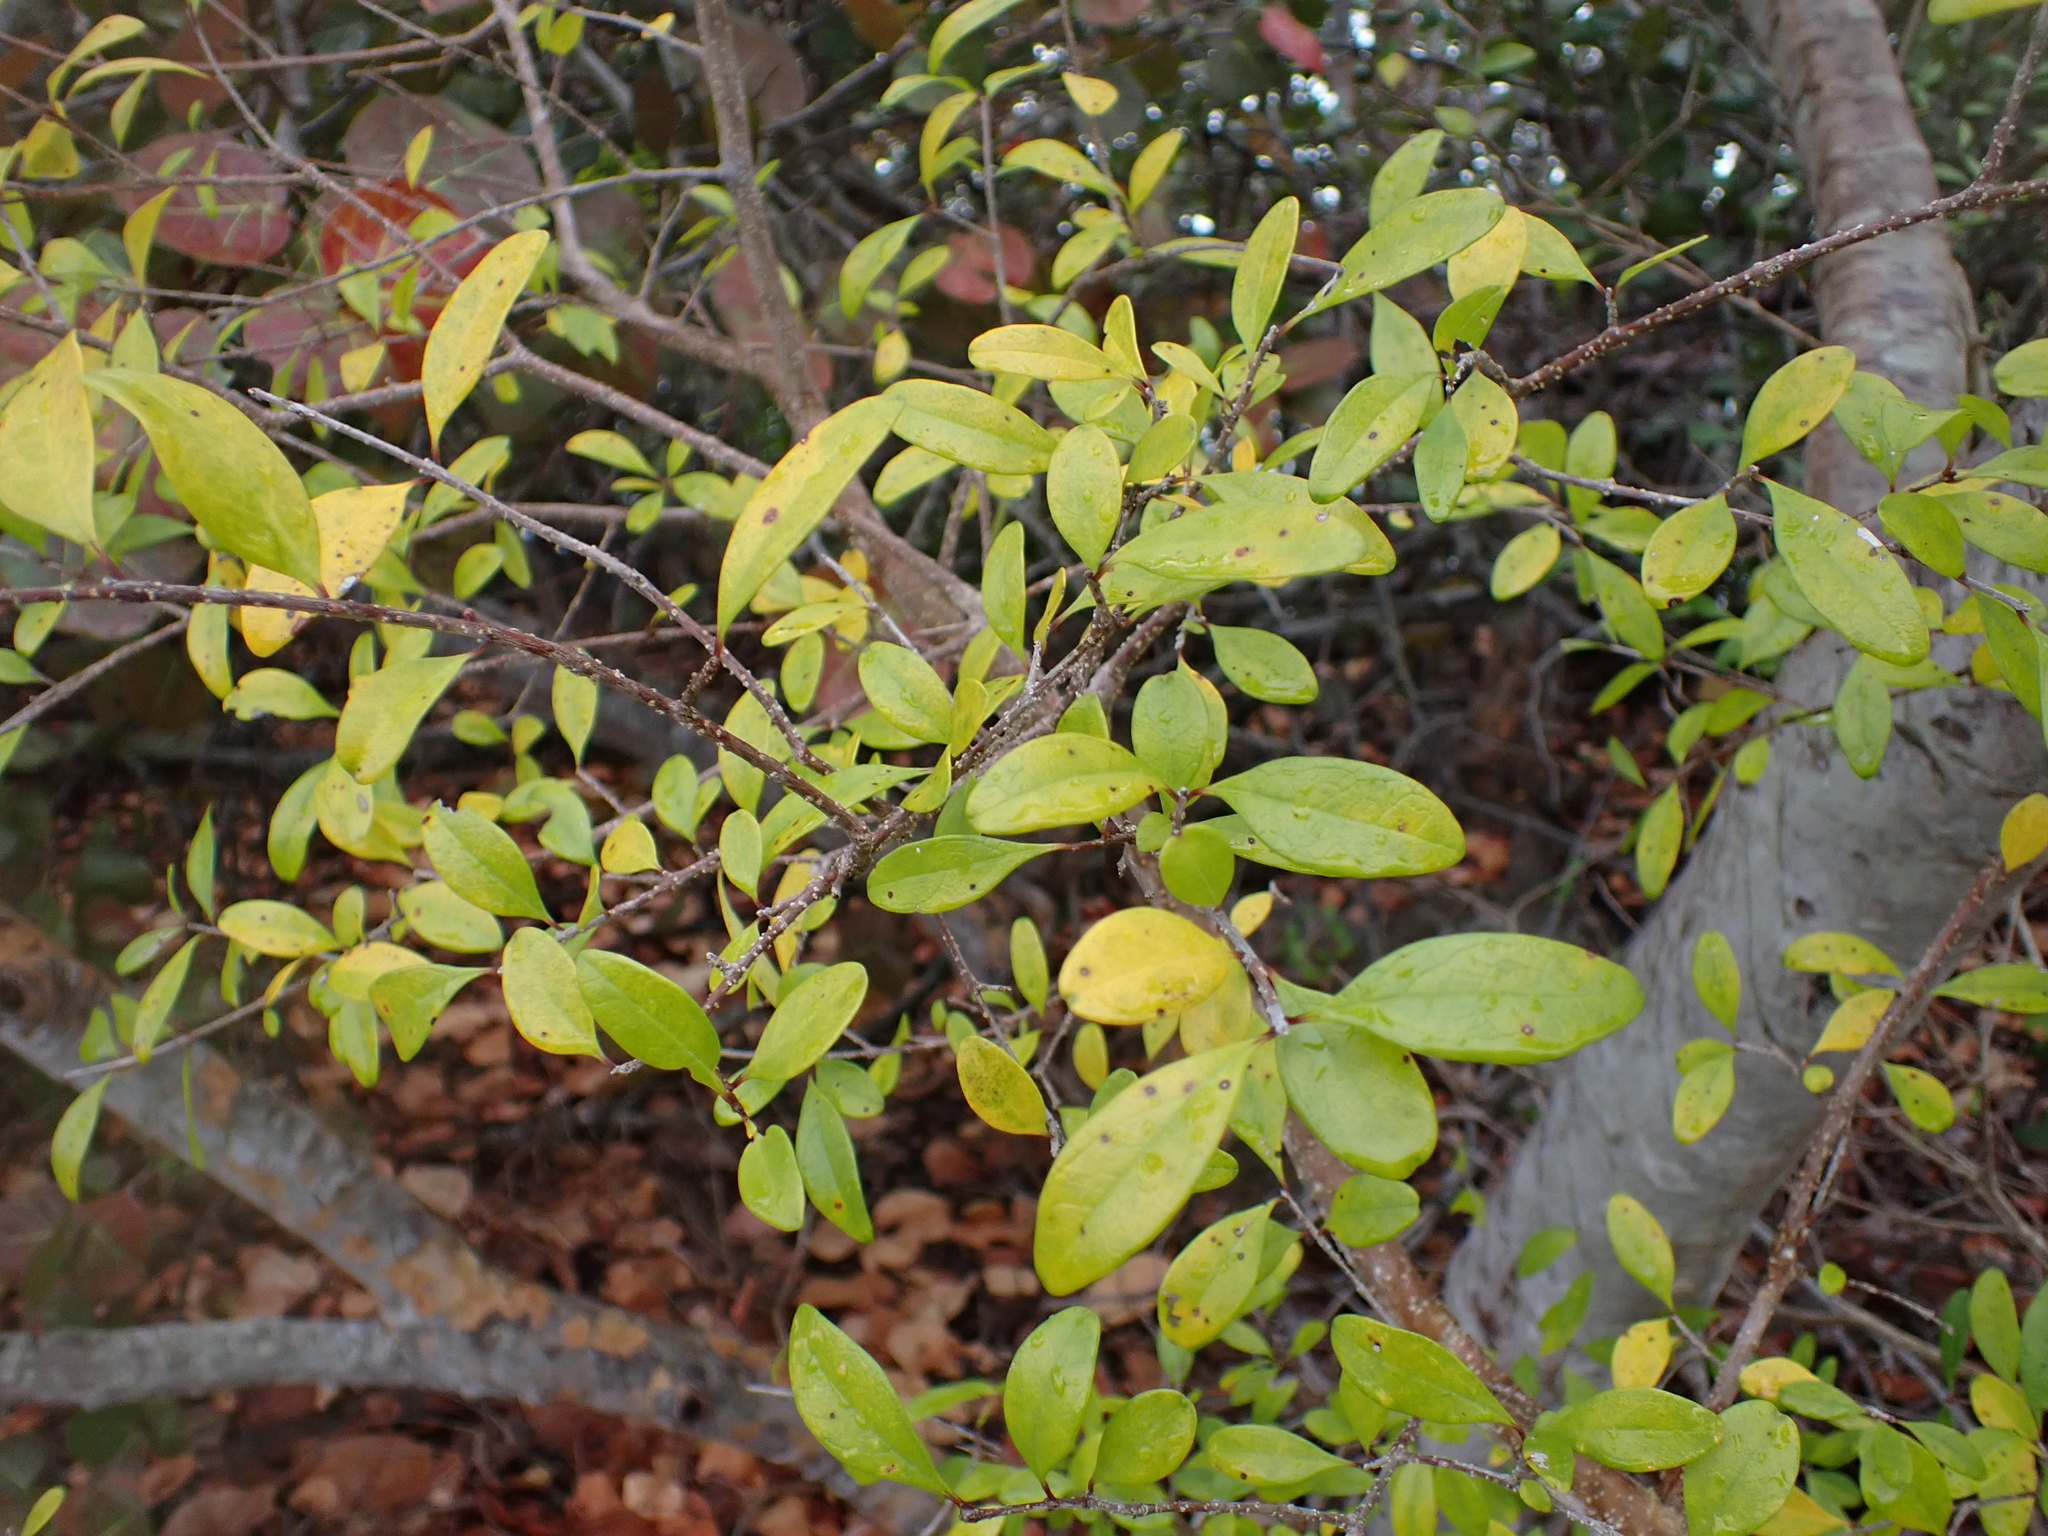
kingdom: Plantae
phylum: Tracheophyta
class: Magnoliopsida
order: Lamiales
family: Oleaceae
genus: Forestiera
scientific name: Forestiera segregata
